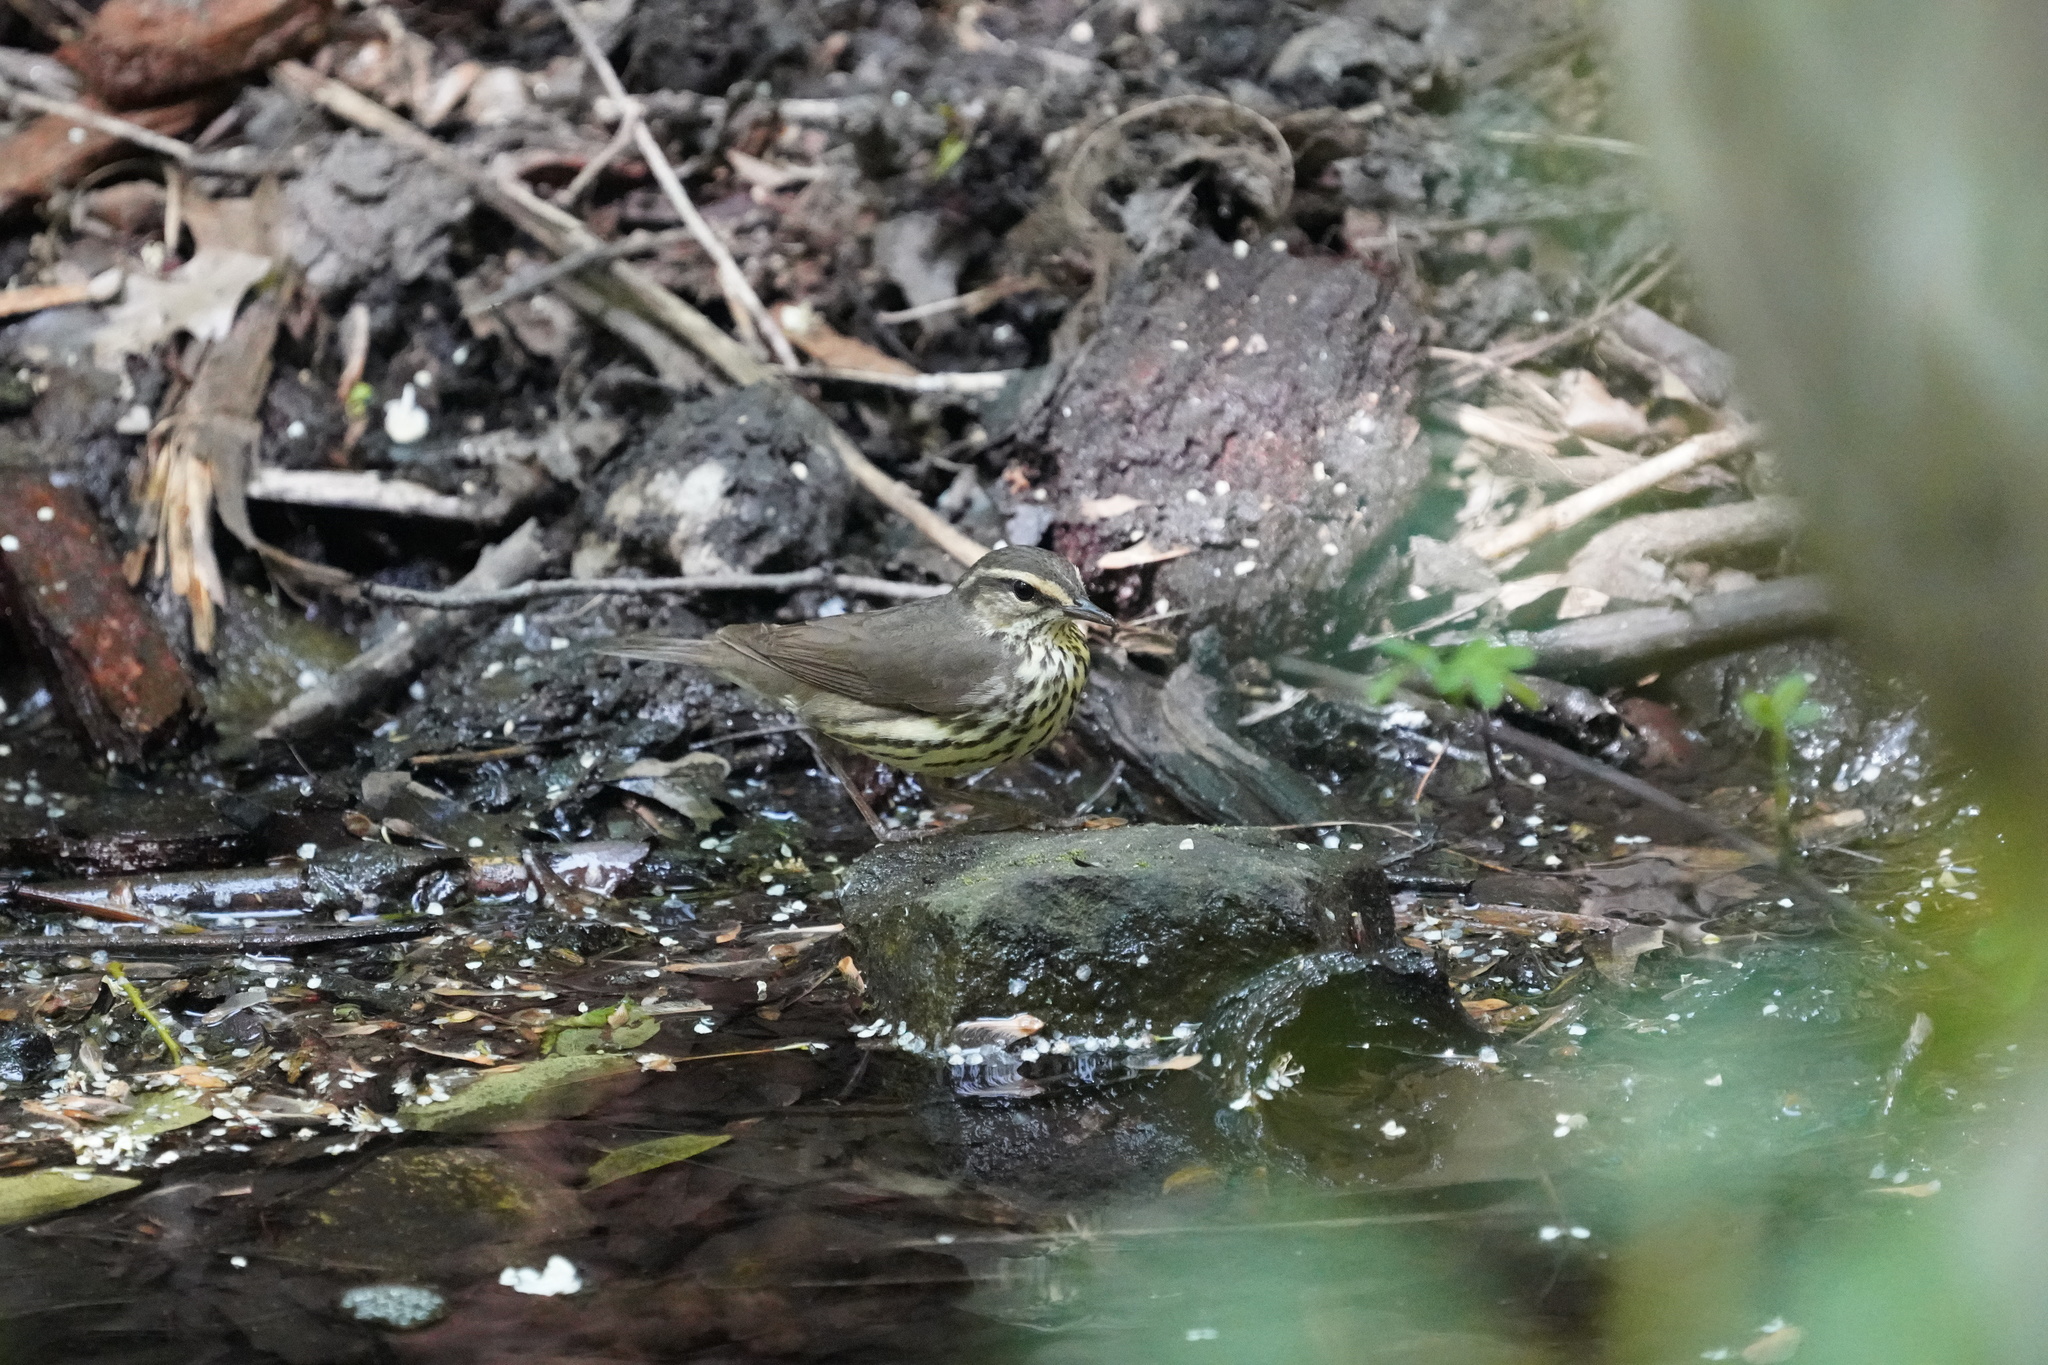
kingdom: Animalia
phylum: Chordata
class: Aves
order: Passeriformes
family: Parulidae
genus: Parkesia
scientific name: Parkesia noveboracensis
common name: Northern waterthrush
